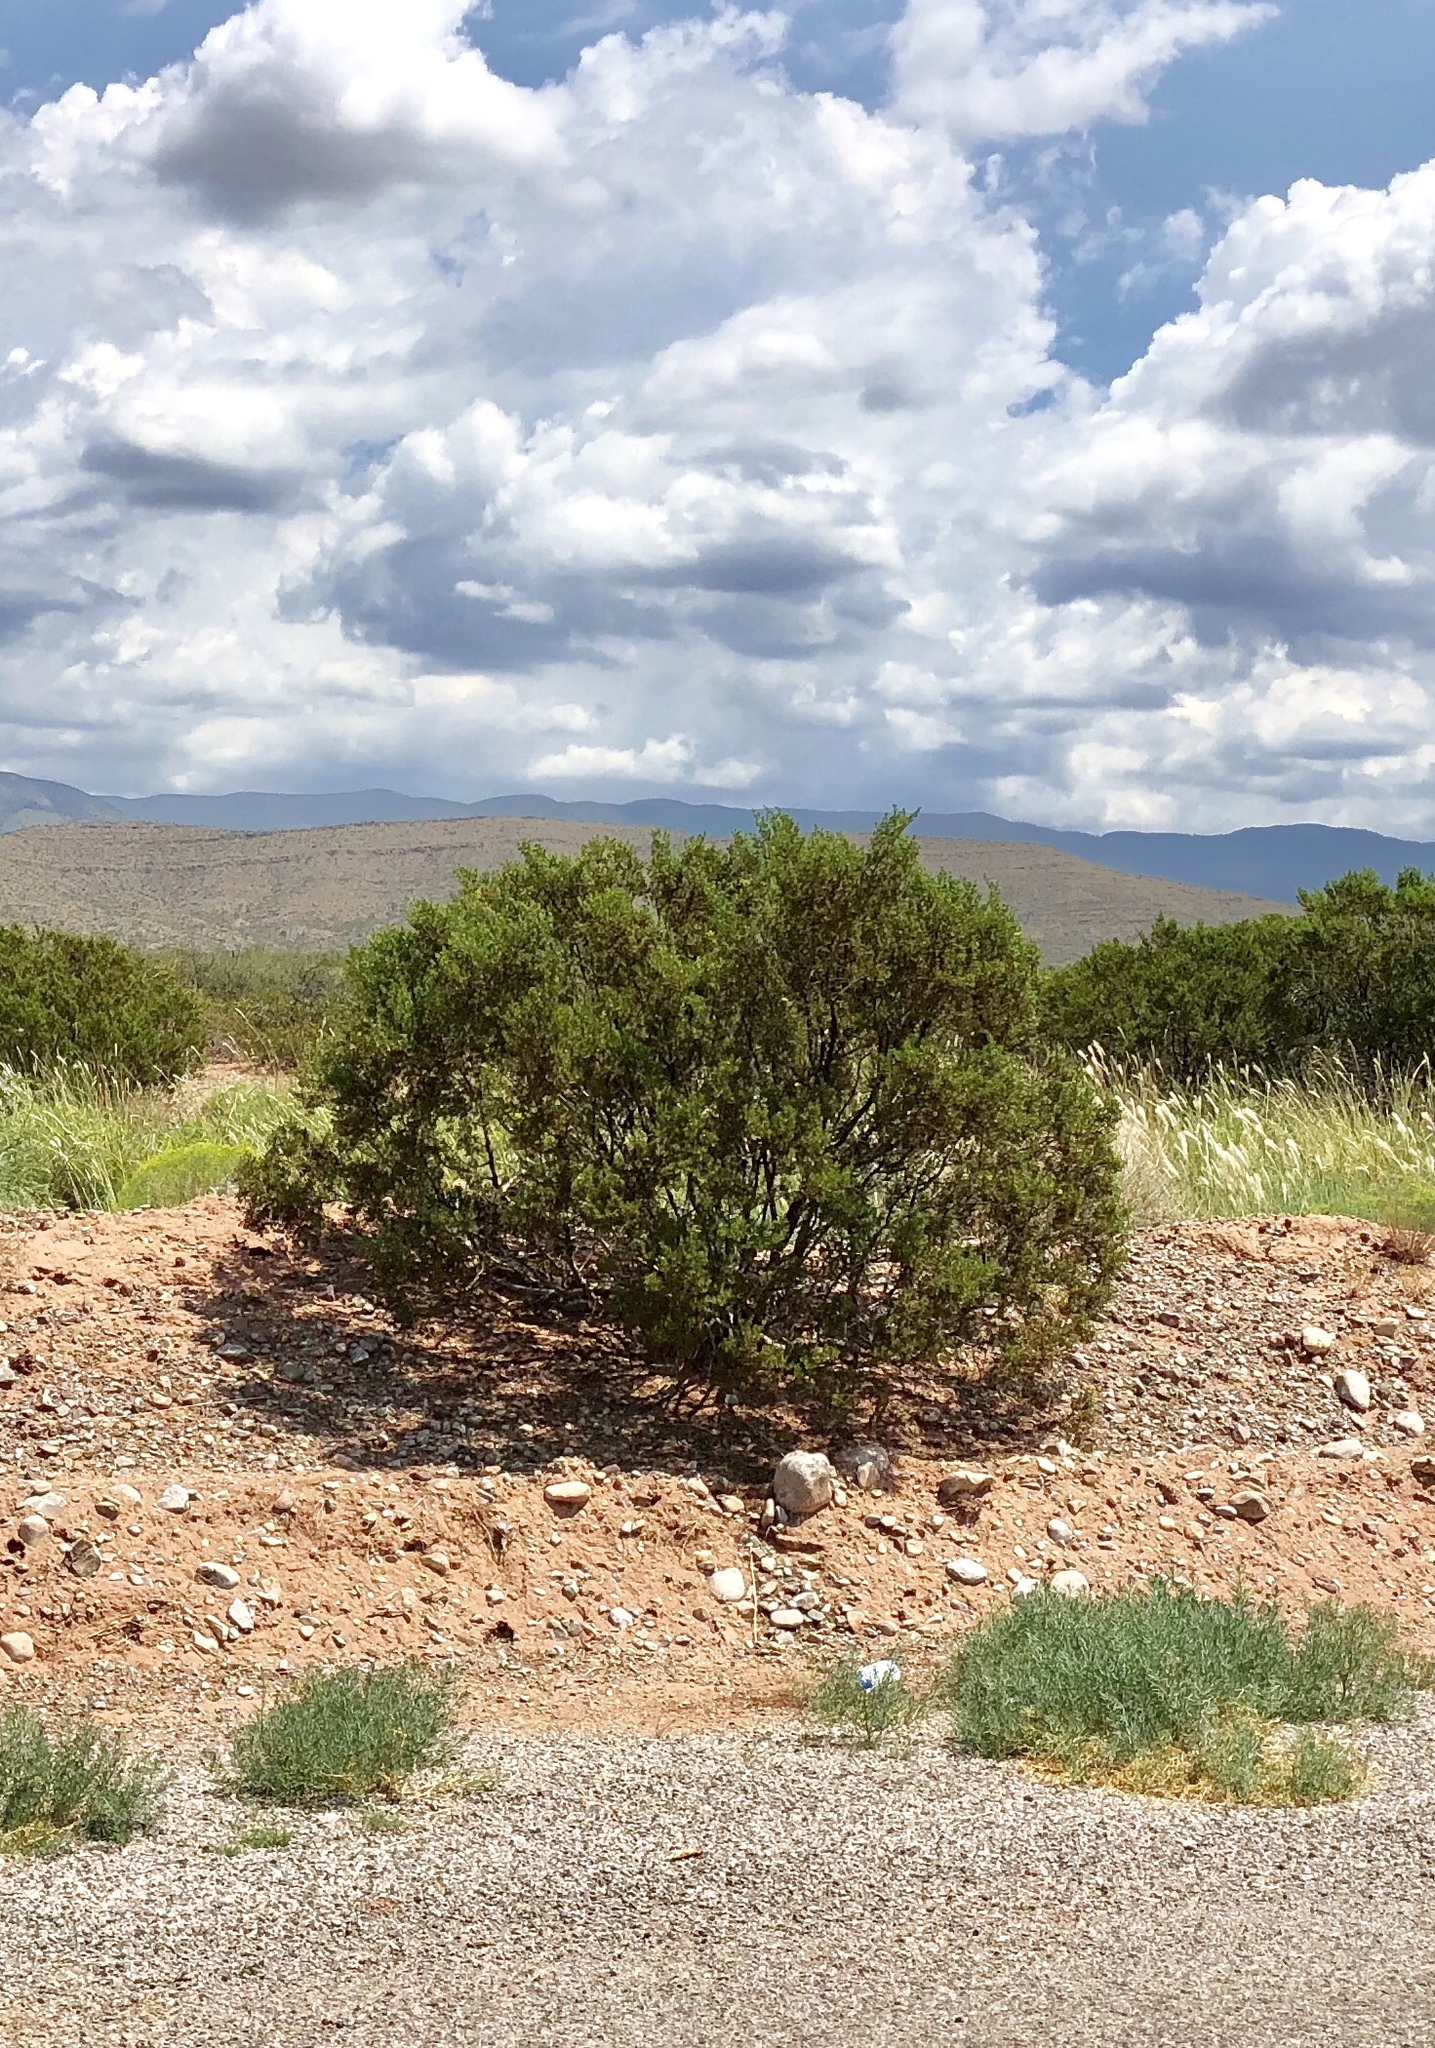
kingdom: Plantae
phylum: Tracheophyta
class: Magnoliopsida
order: Zygophyllales
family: Zygophyllaceae
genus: Larrea
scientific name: Larrea tridentata
